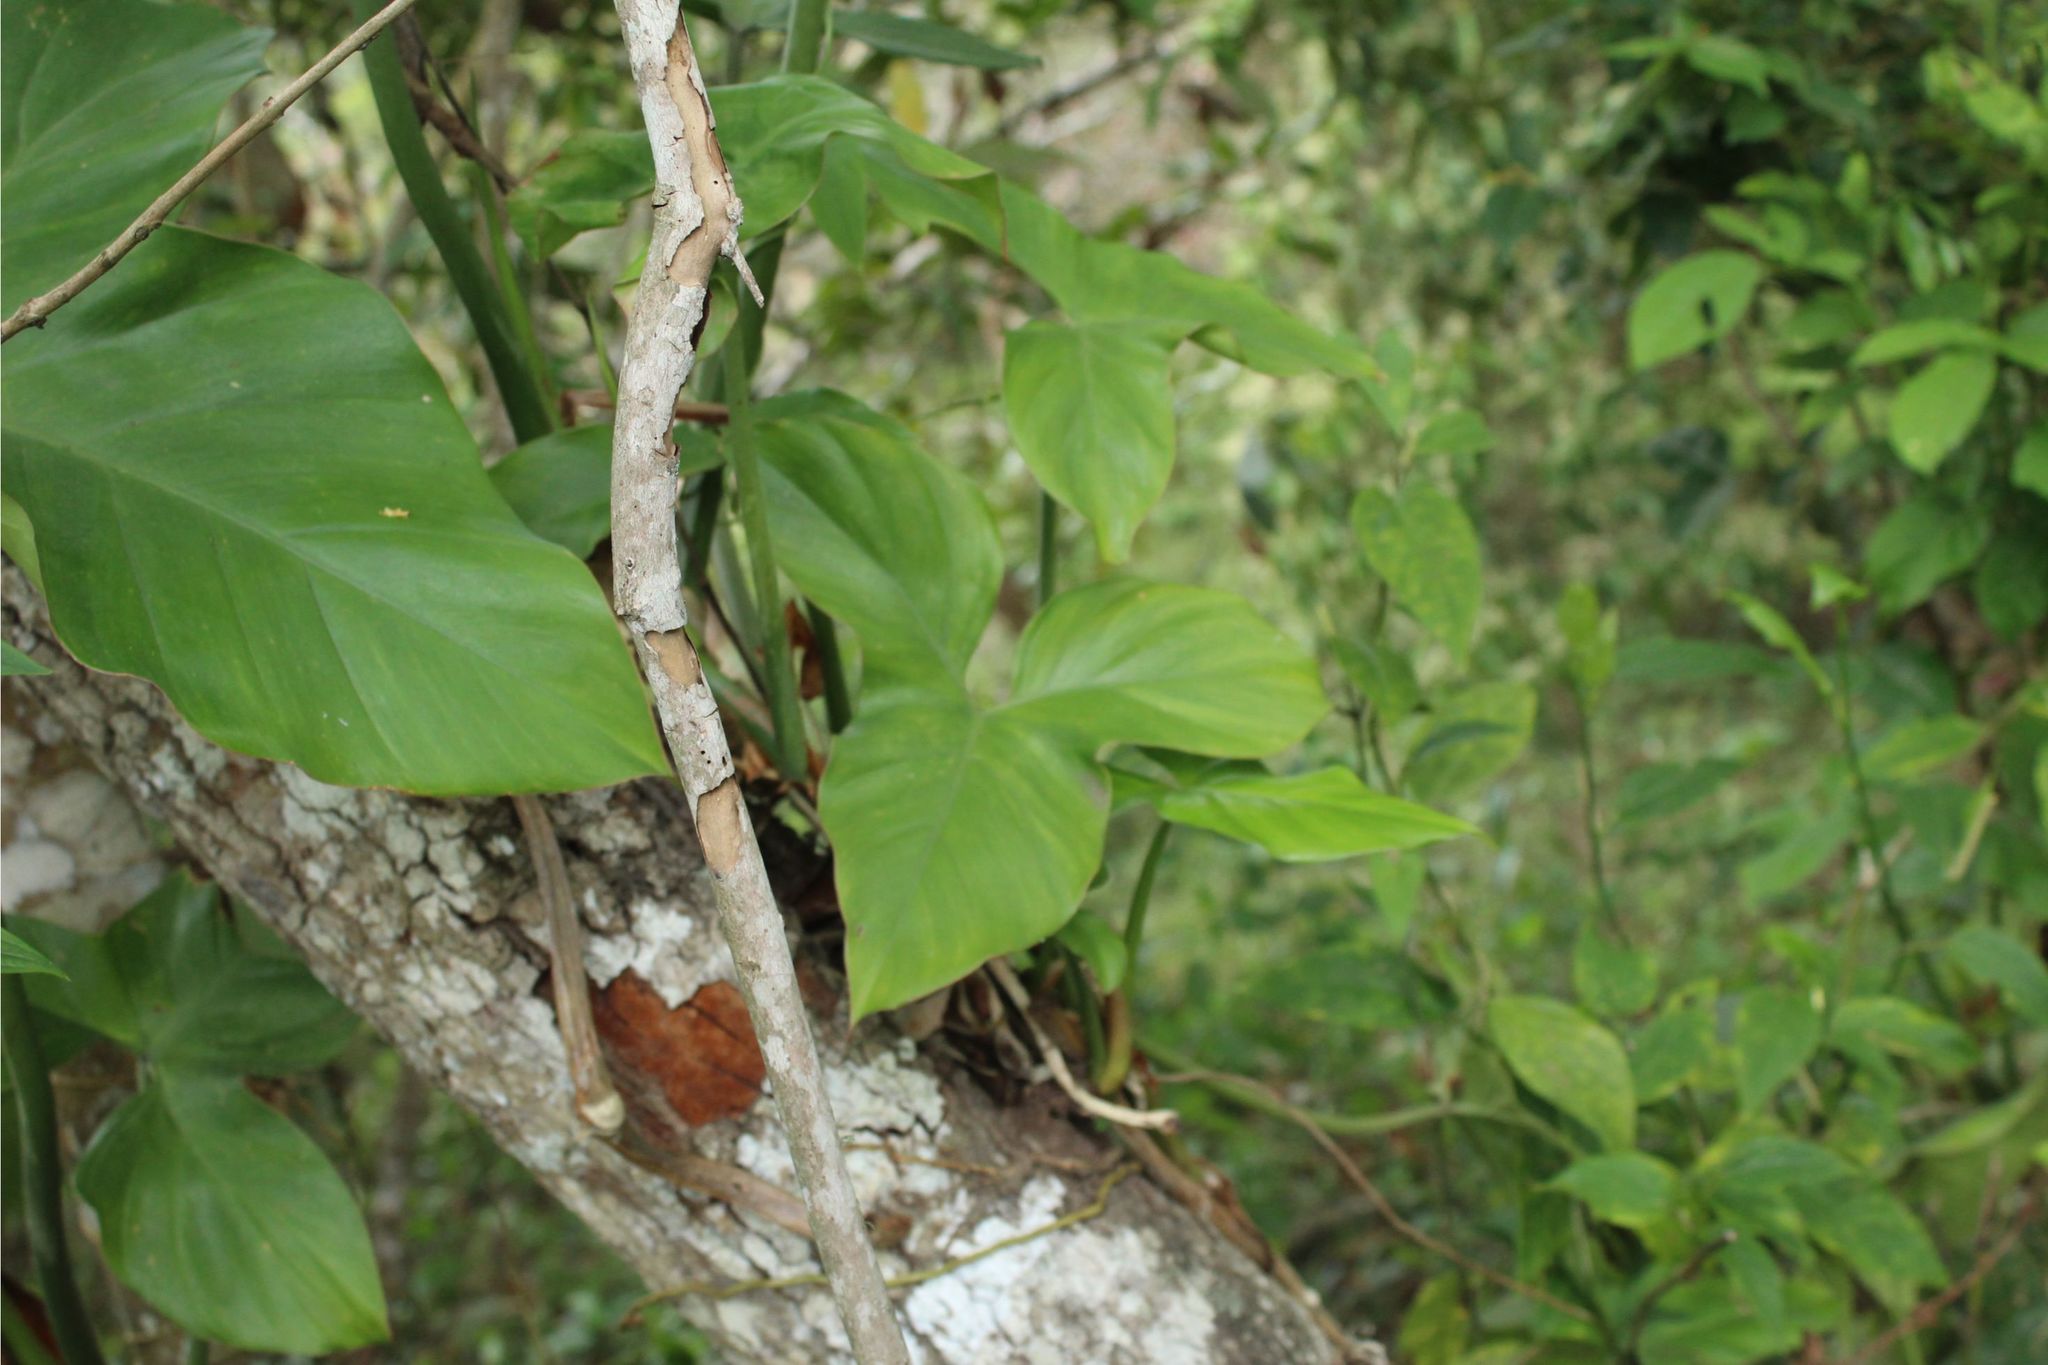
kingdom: Plantae
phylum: Tracheophyta
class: Liliopsida
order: Alismatales
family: Araceae
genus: Philodendron
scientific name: Philodendron
